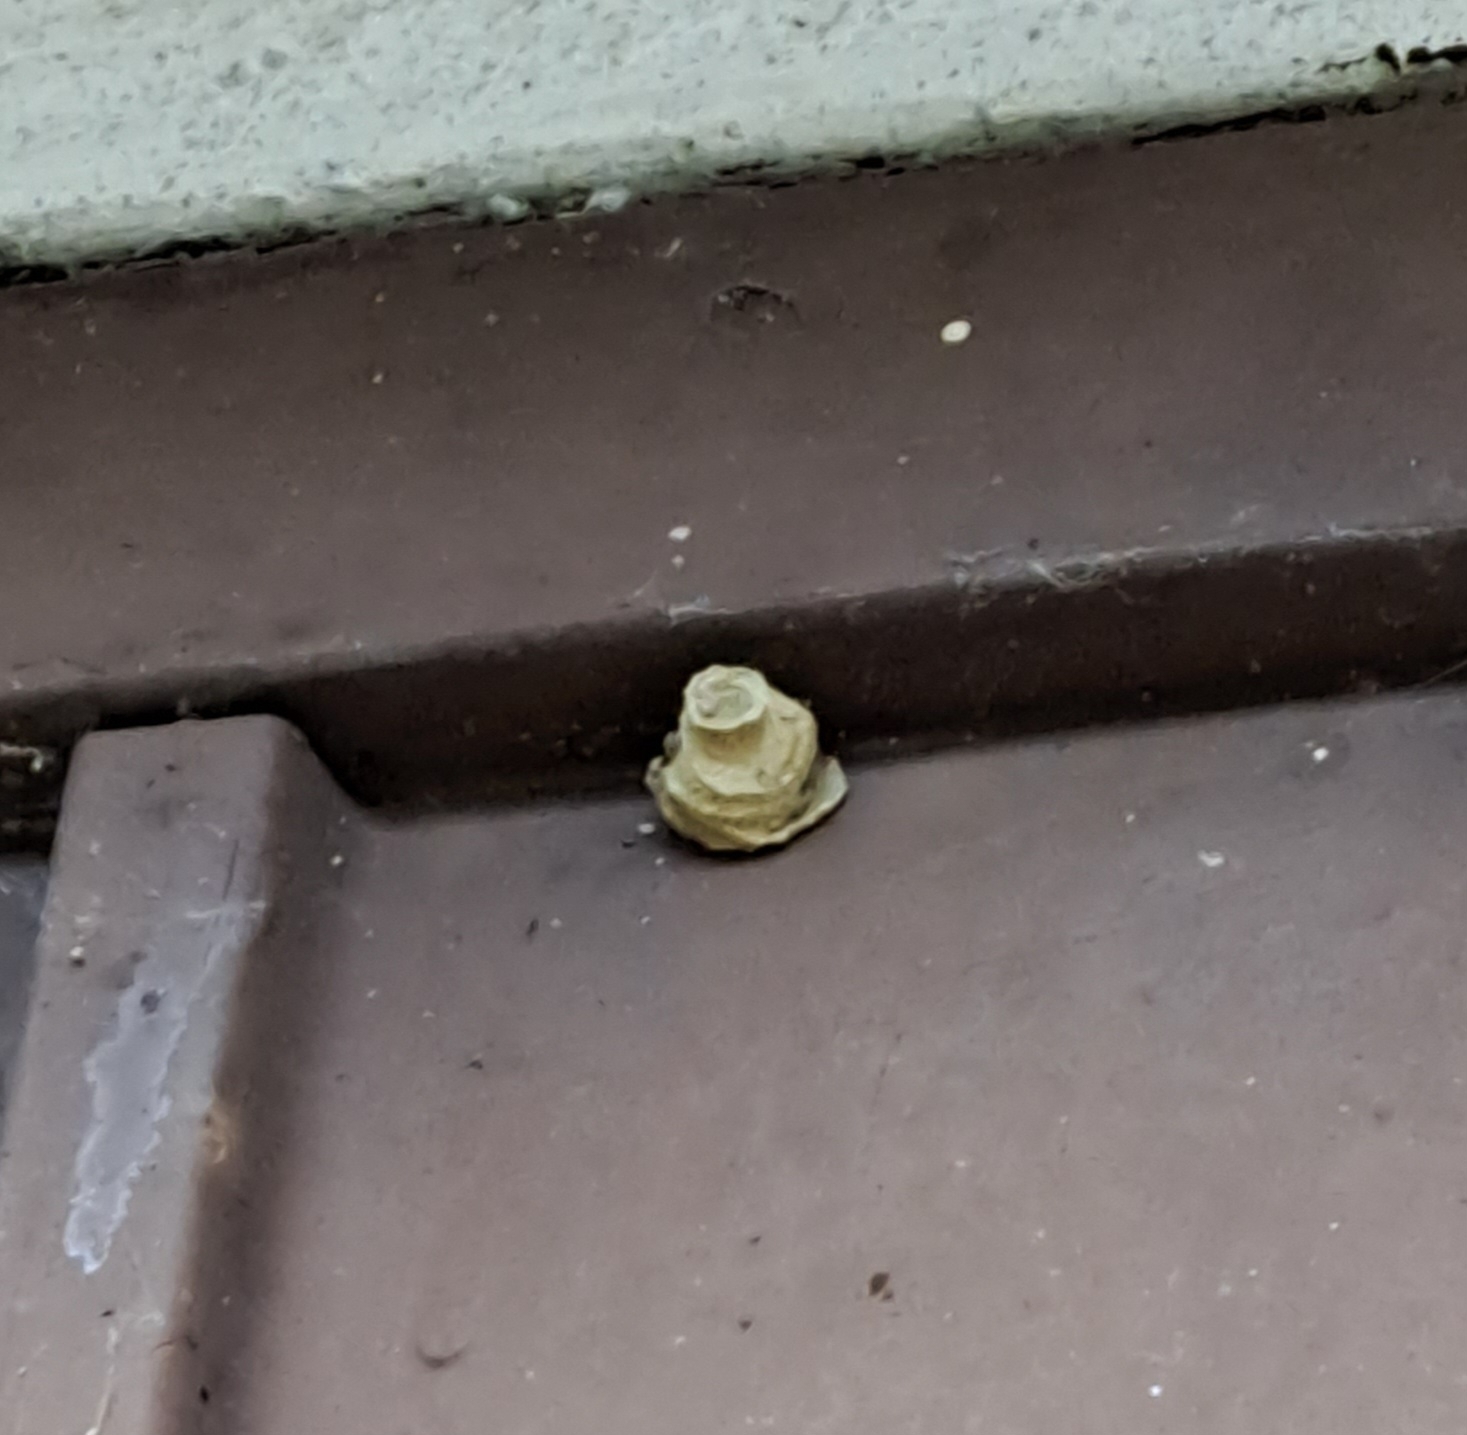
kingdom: Animalia
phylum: Arthropoda
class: Insecta
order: Hymenoptera
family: Vespidae
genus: Eumenes
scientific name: Eumenes
